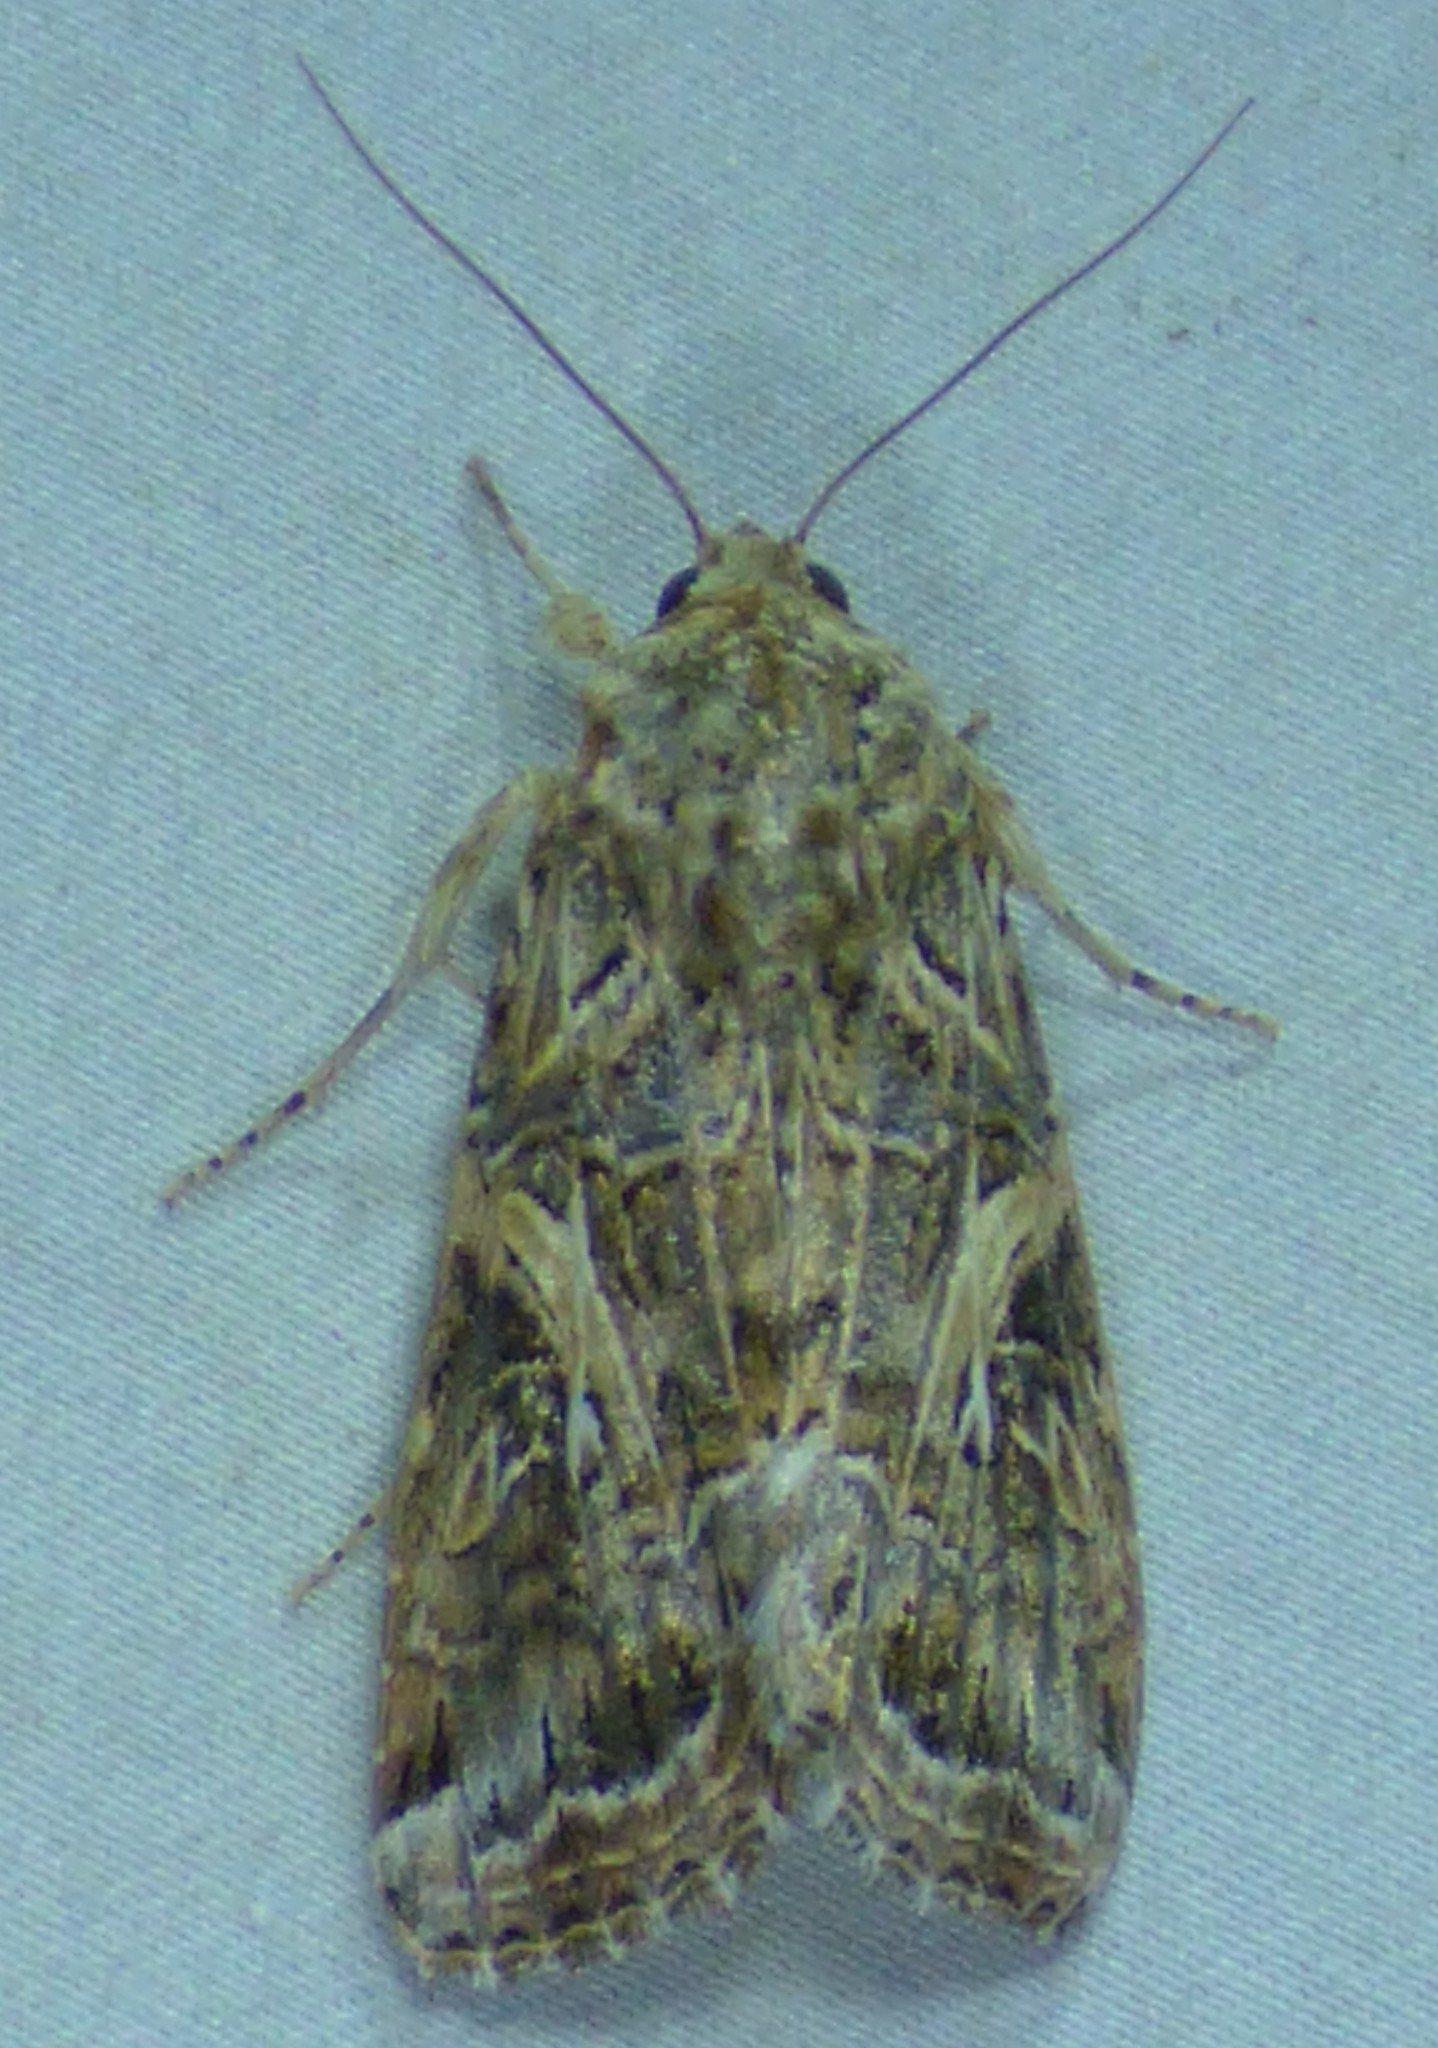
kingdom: Animalia
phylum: Arthropoda
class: Insecta
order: Lepidoptera
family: Noctuidae
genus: Spodoptera
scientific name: Spodoptera ornithogalli
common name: Yellow-striped armyworm
